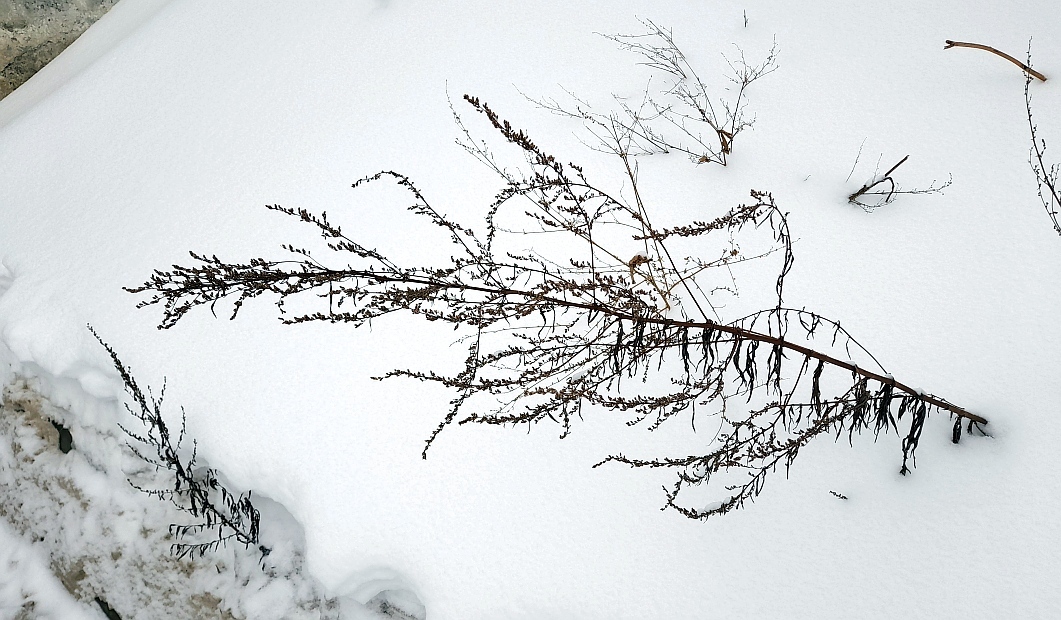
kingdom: Plantae
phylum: Tracheophyta
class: Magnoliopsida
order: Asterales
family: Asteraceae
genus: Artemisia
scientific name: Artemisia vulgaris
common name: Mugwort
